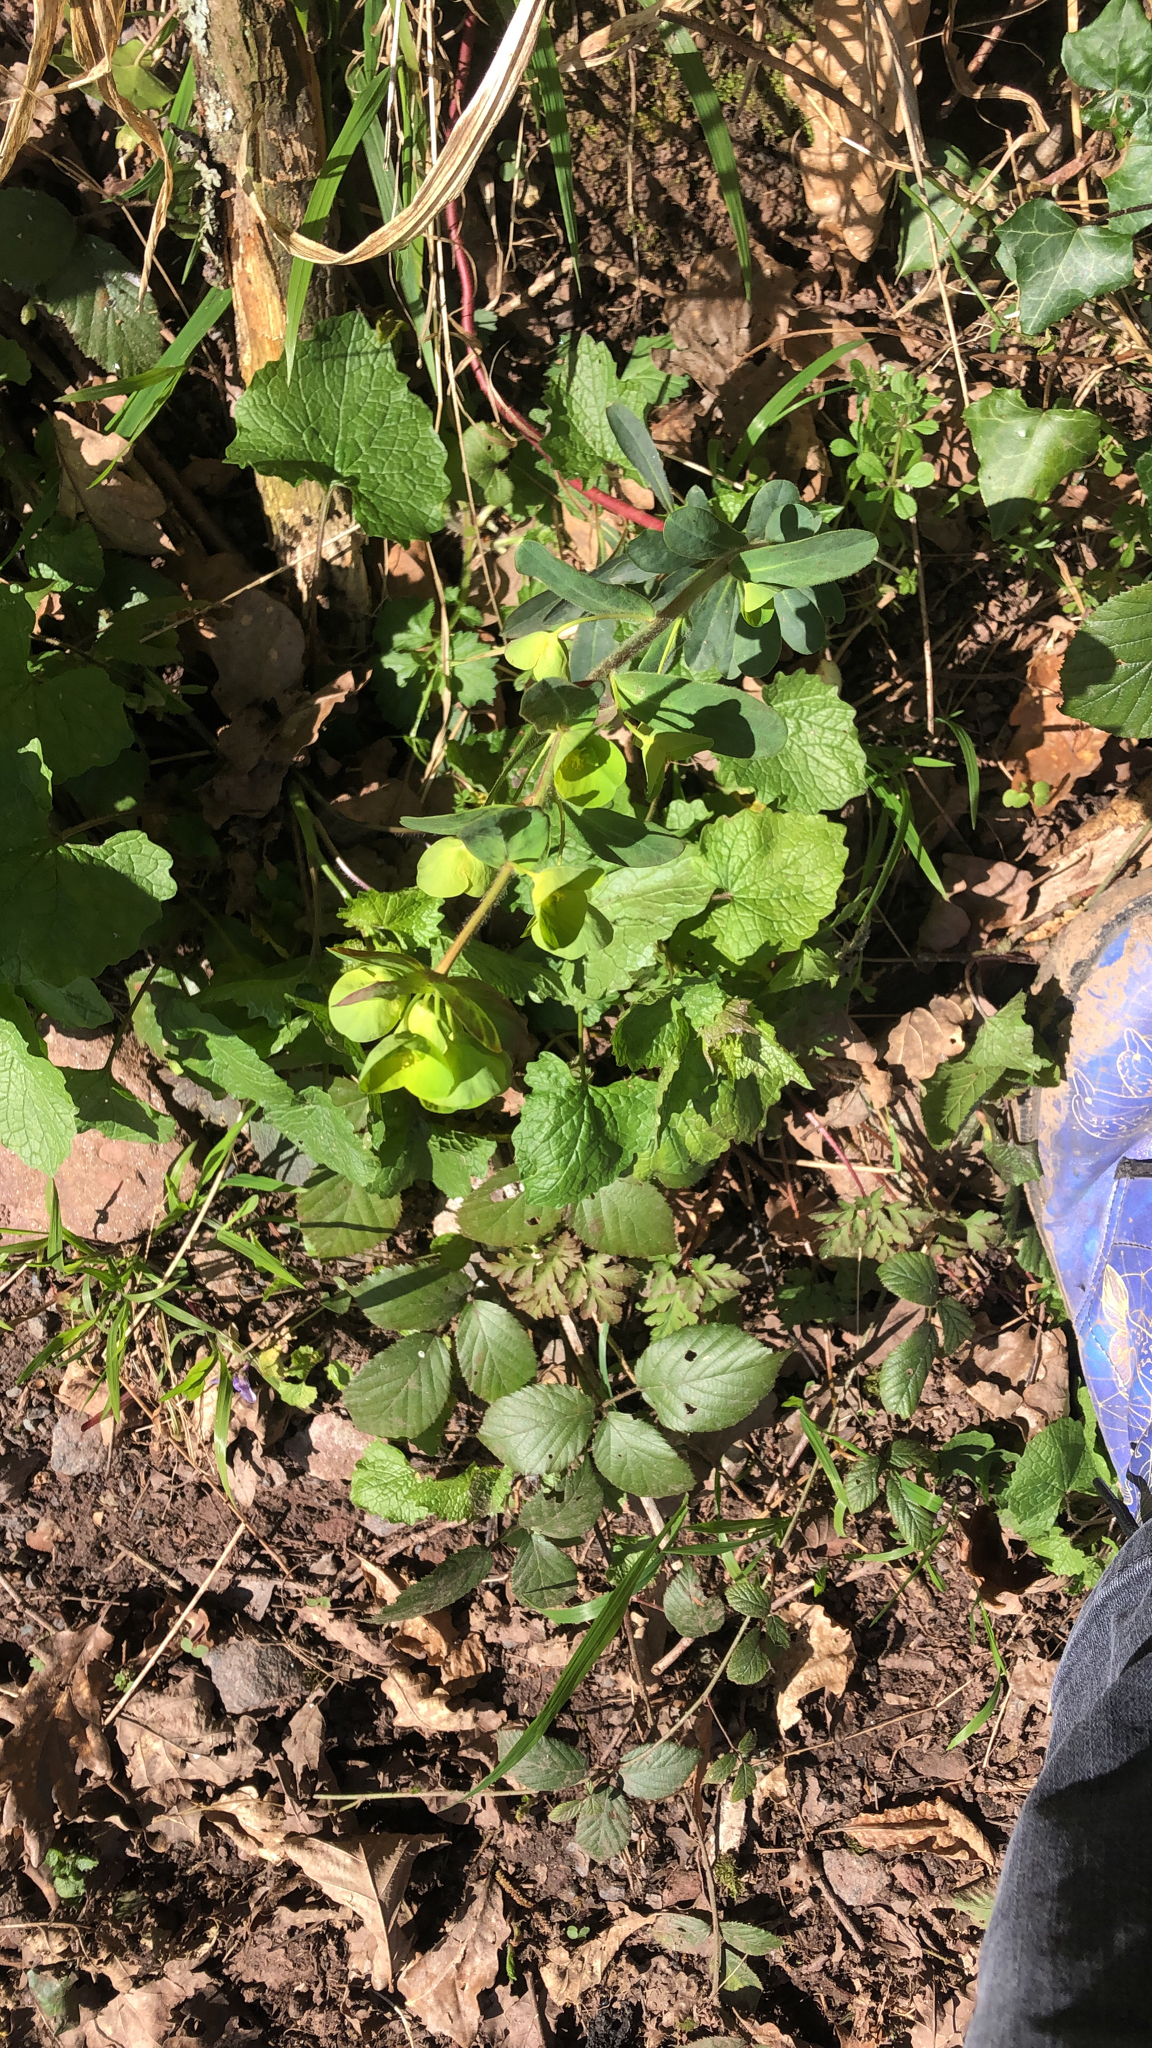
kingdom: Plantae
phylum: Tracheophyta
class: Magnoliopsida
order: Malpighiales
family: Euphorbiaceae
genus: Euphorbia
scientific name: Euphorbia amygdaloides
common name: Wood spurge
